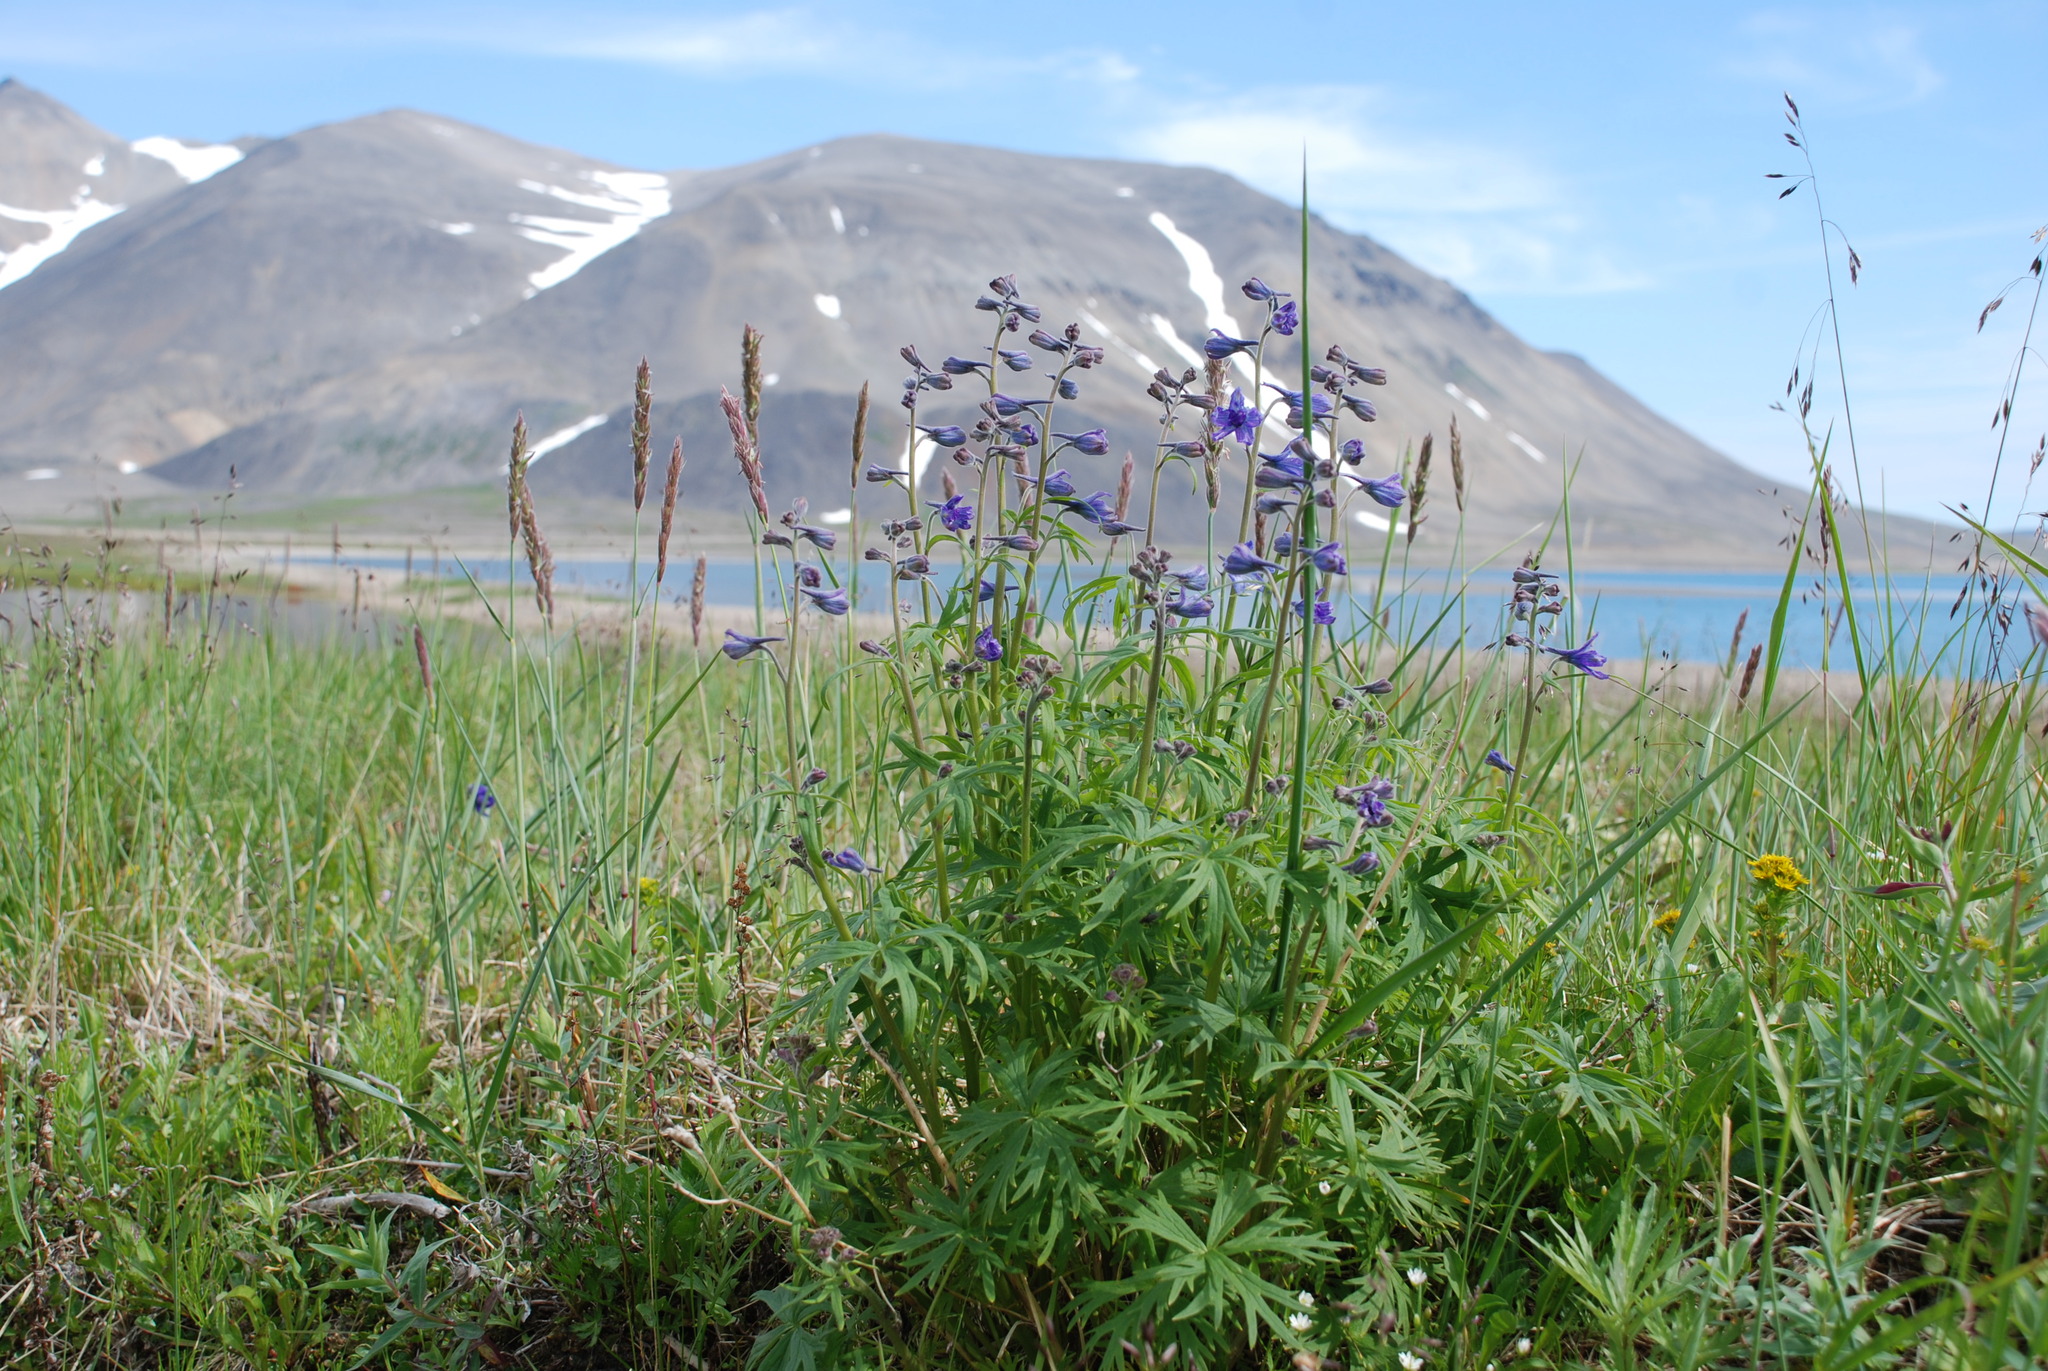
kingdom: Plantae
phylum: Tracheophyta
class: Magnoliopsida
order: Ranunculales
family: Ranunculaceae
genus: Delphinium
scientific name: Delphinium chamissonis
